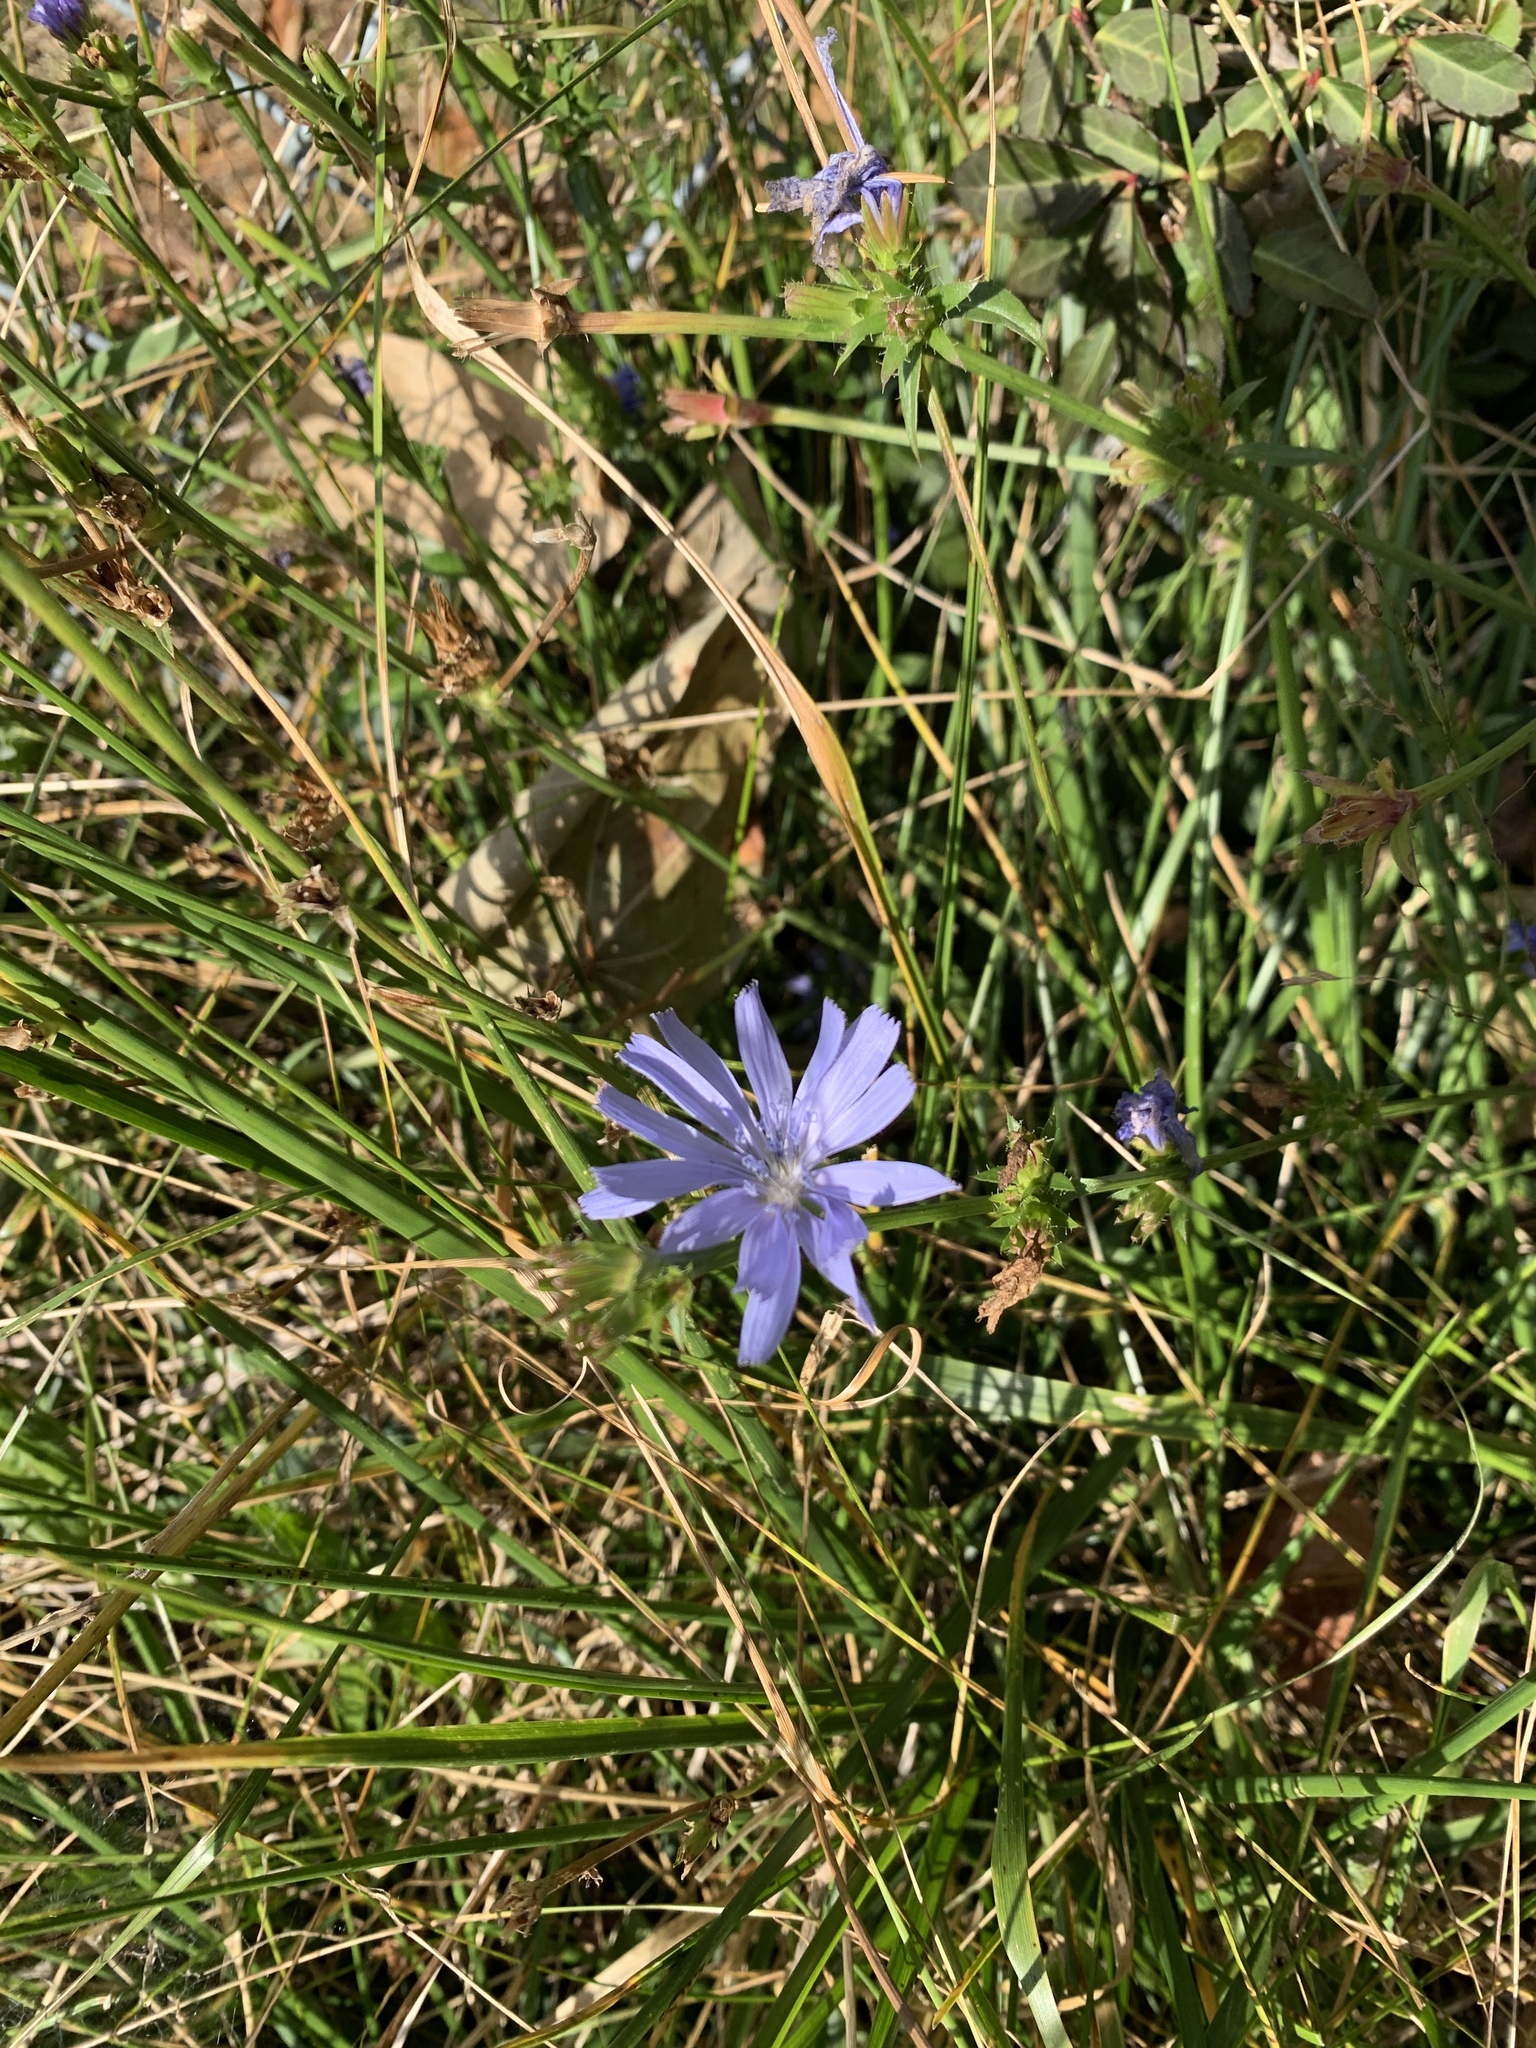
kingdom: Plantae
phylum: Tracheophyta
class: Magnoliopsida
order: Asterales
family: Asteraceae
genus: Cichorium
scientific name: Cichorium intybus
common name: Chicory
